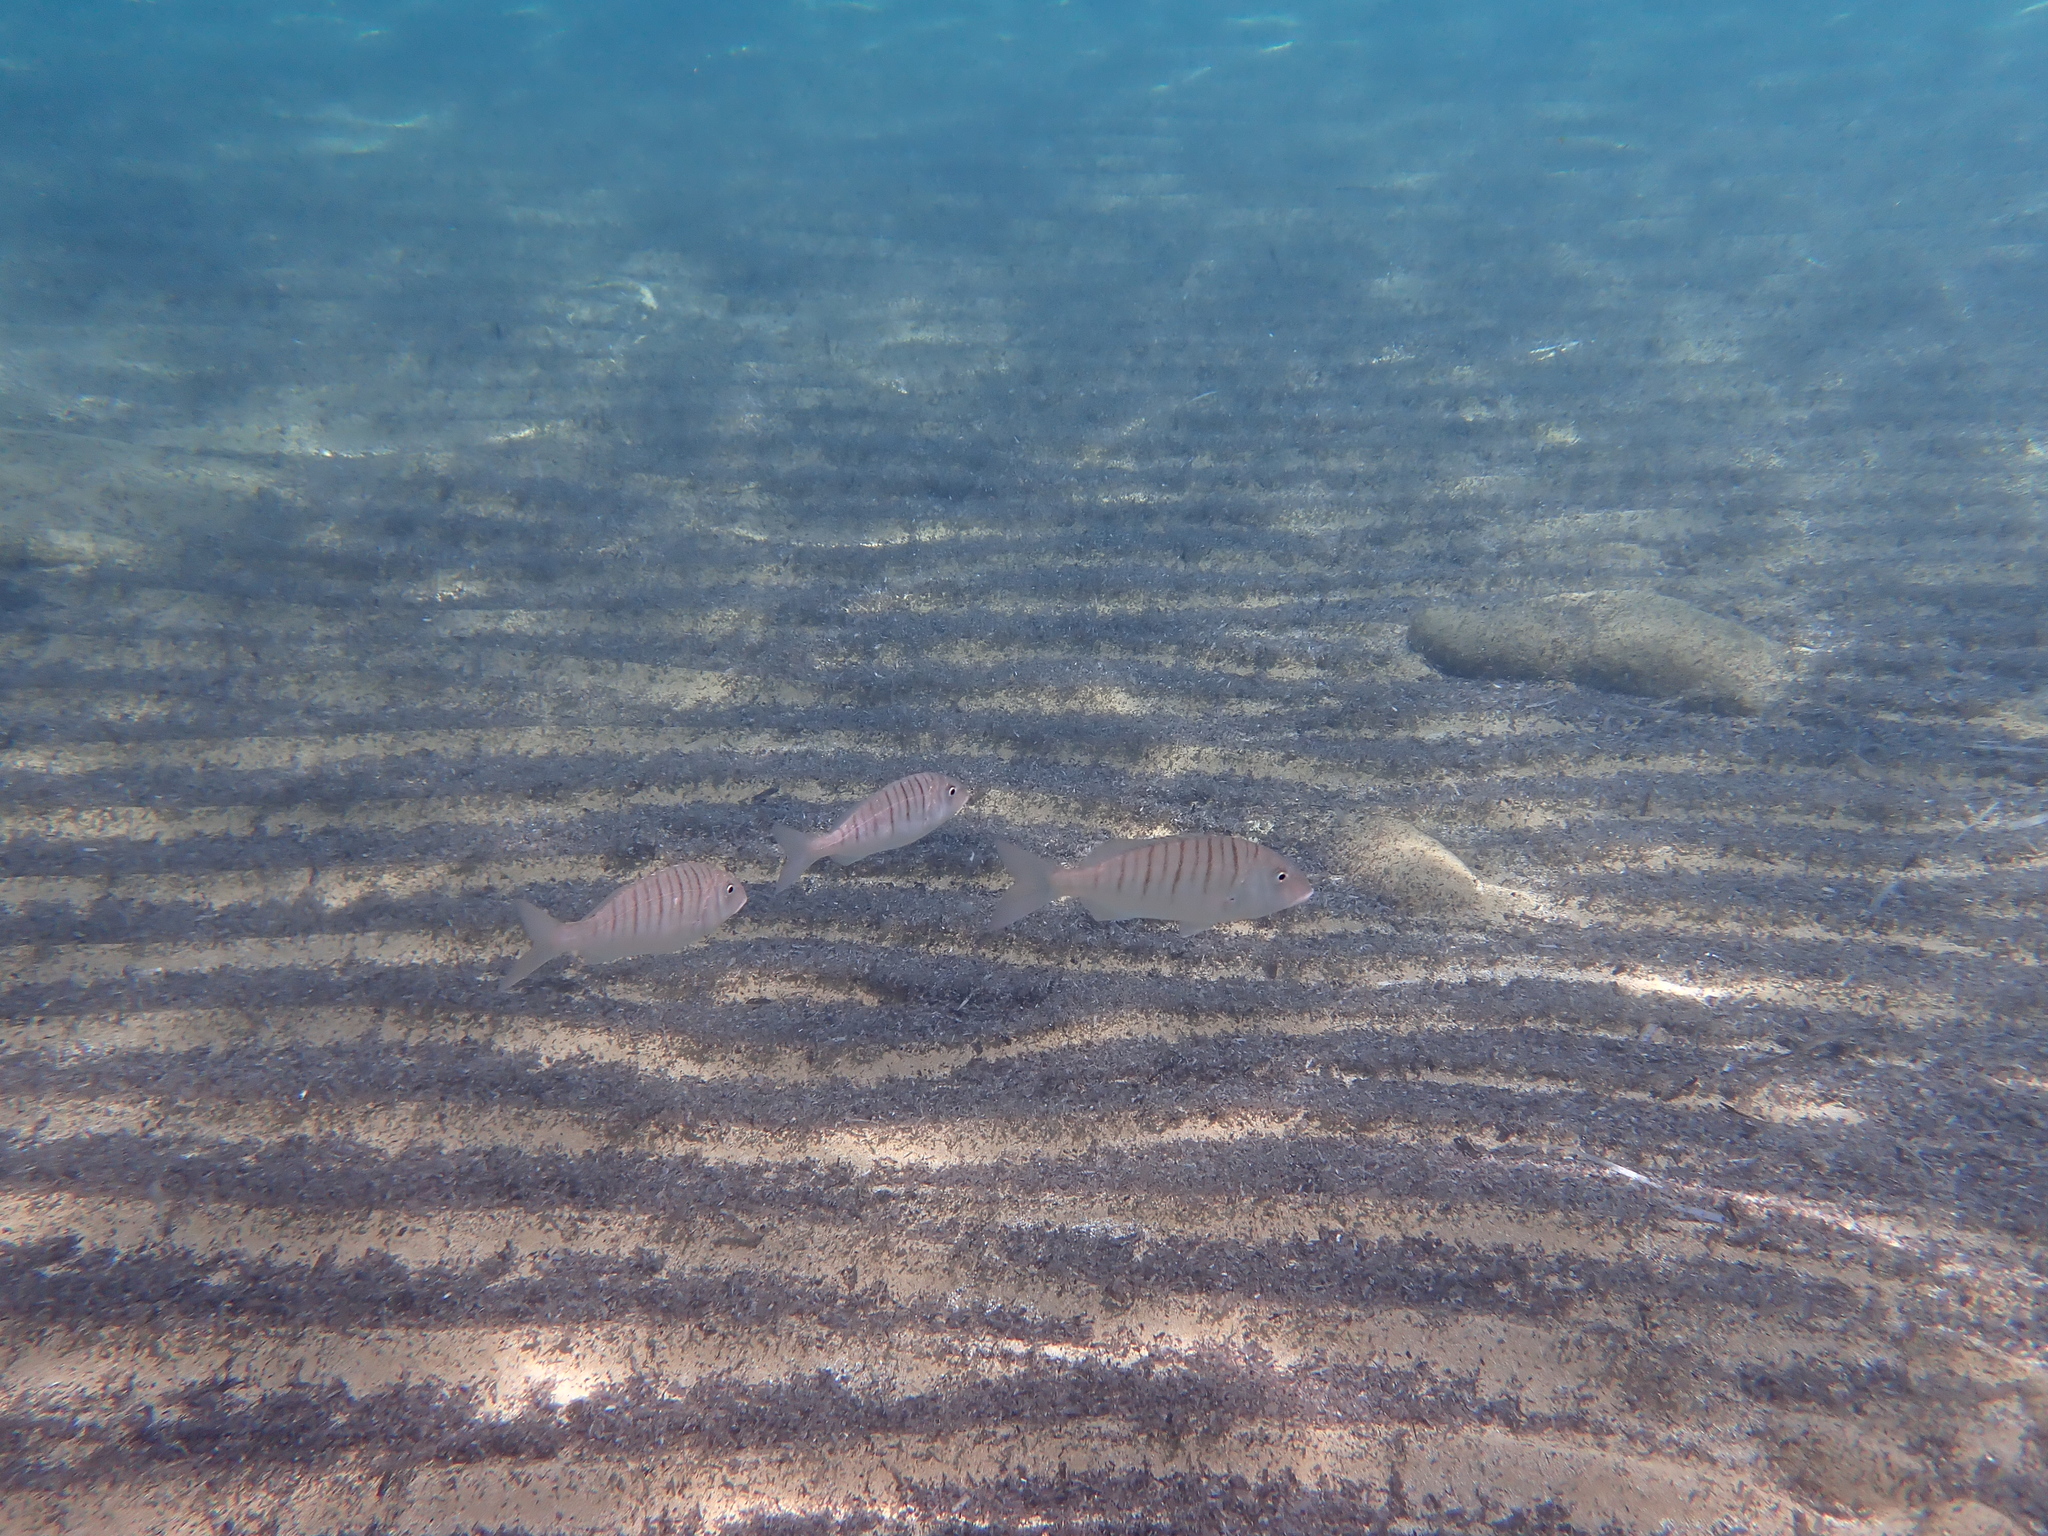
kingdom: Animalia
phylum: Chordata
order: Perciformes
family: Sparidae
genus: Lithognathus
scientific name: Lithognathus mormyrus
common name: Sand steenbras
